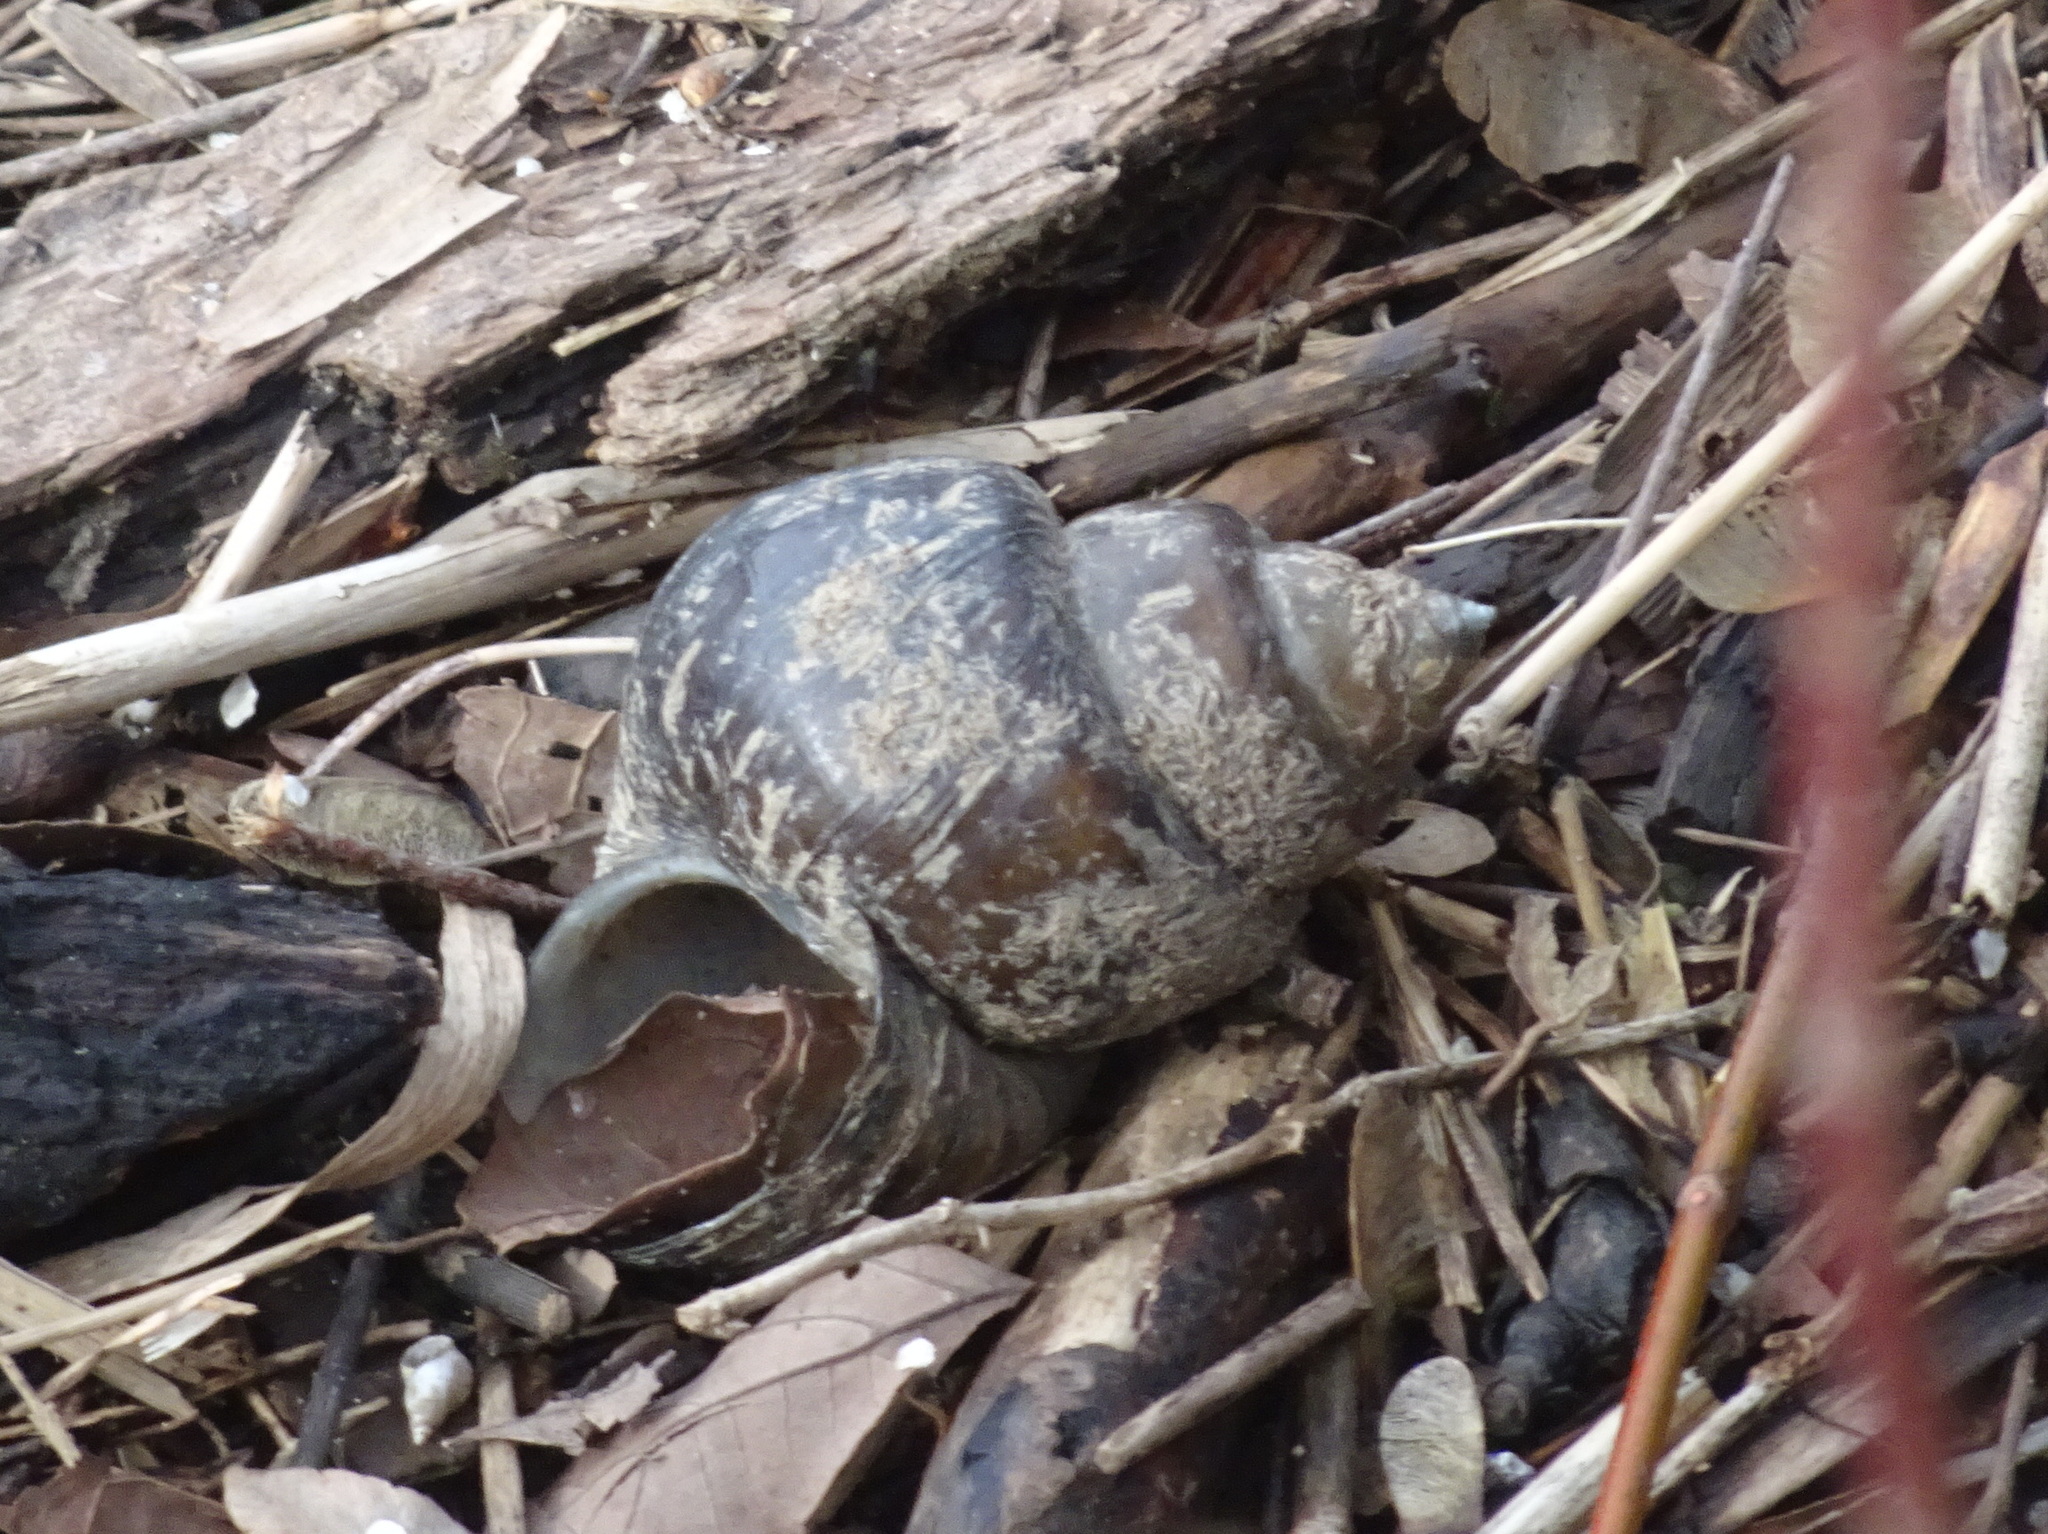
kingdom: Animalia
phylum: Mollusca
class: Gastropoda
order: Architaenioglossa
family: Viviparidae
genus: Cipangopaludina
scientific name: Cipangopaludina chinensis
